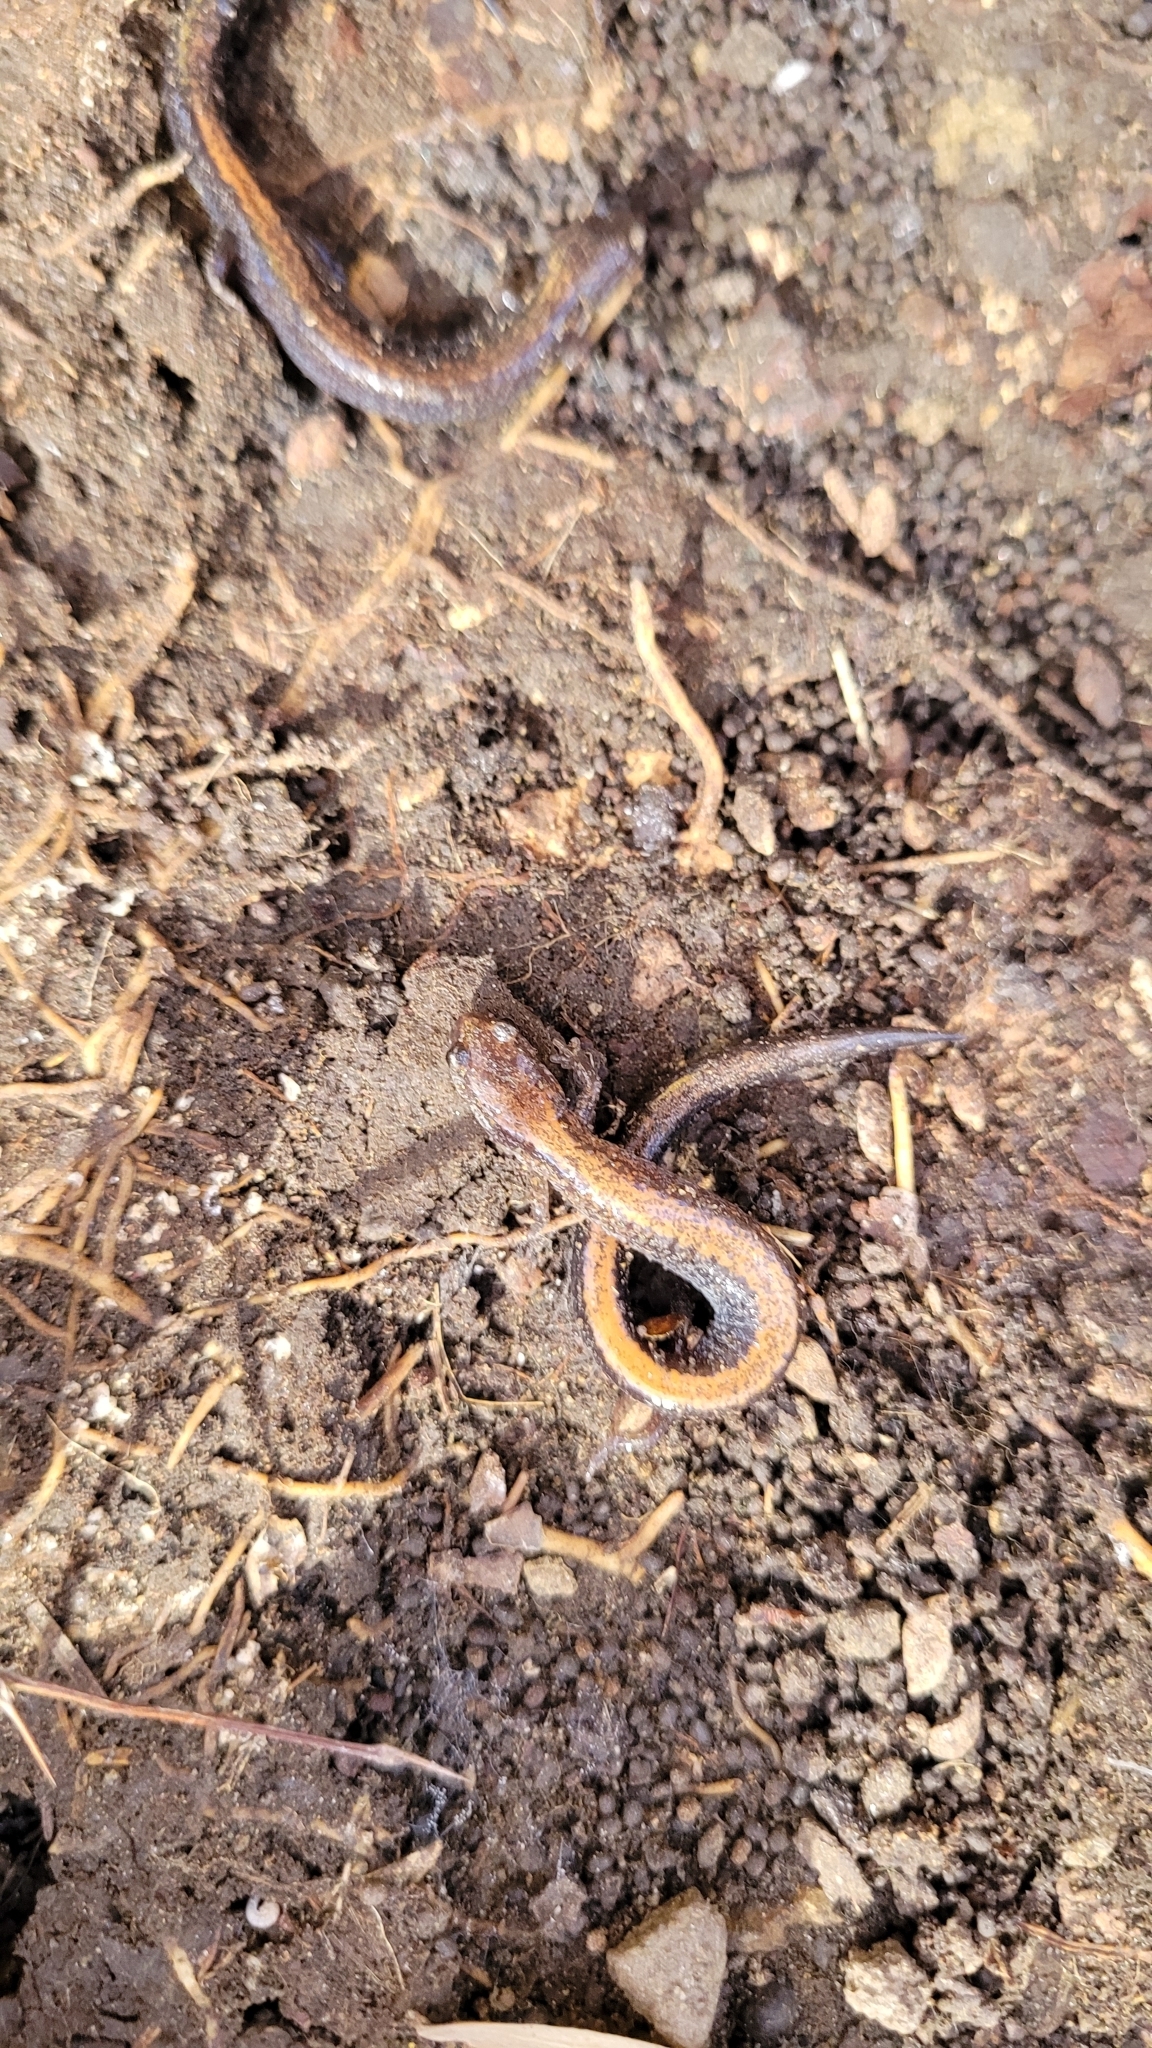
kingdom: Animalia
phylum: Chordata
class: Amphibia
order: Caudata
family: Plethodontidae
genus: Plethodon
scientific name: Plethodon cinereus
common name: Redback salamander
